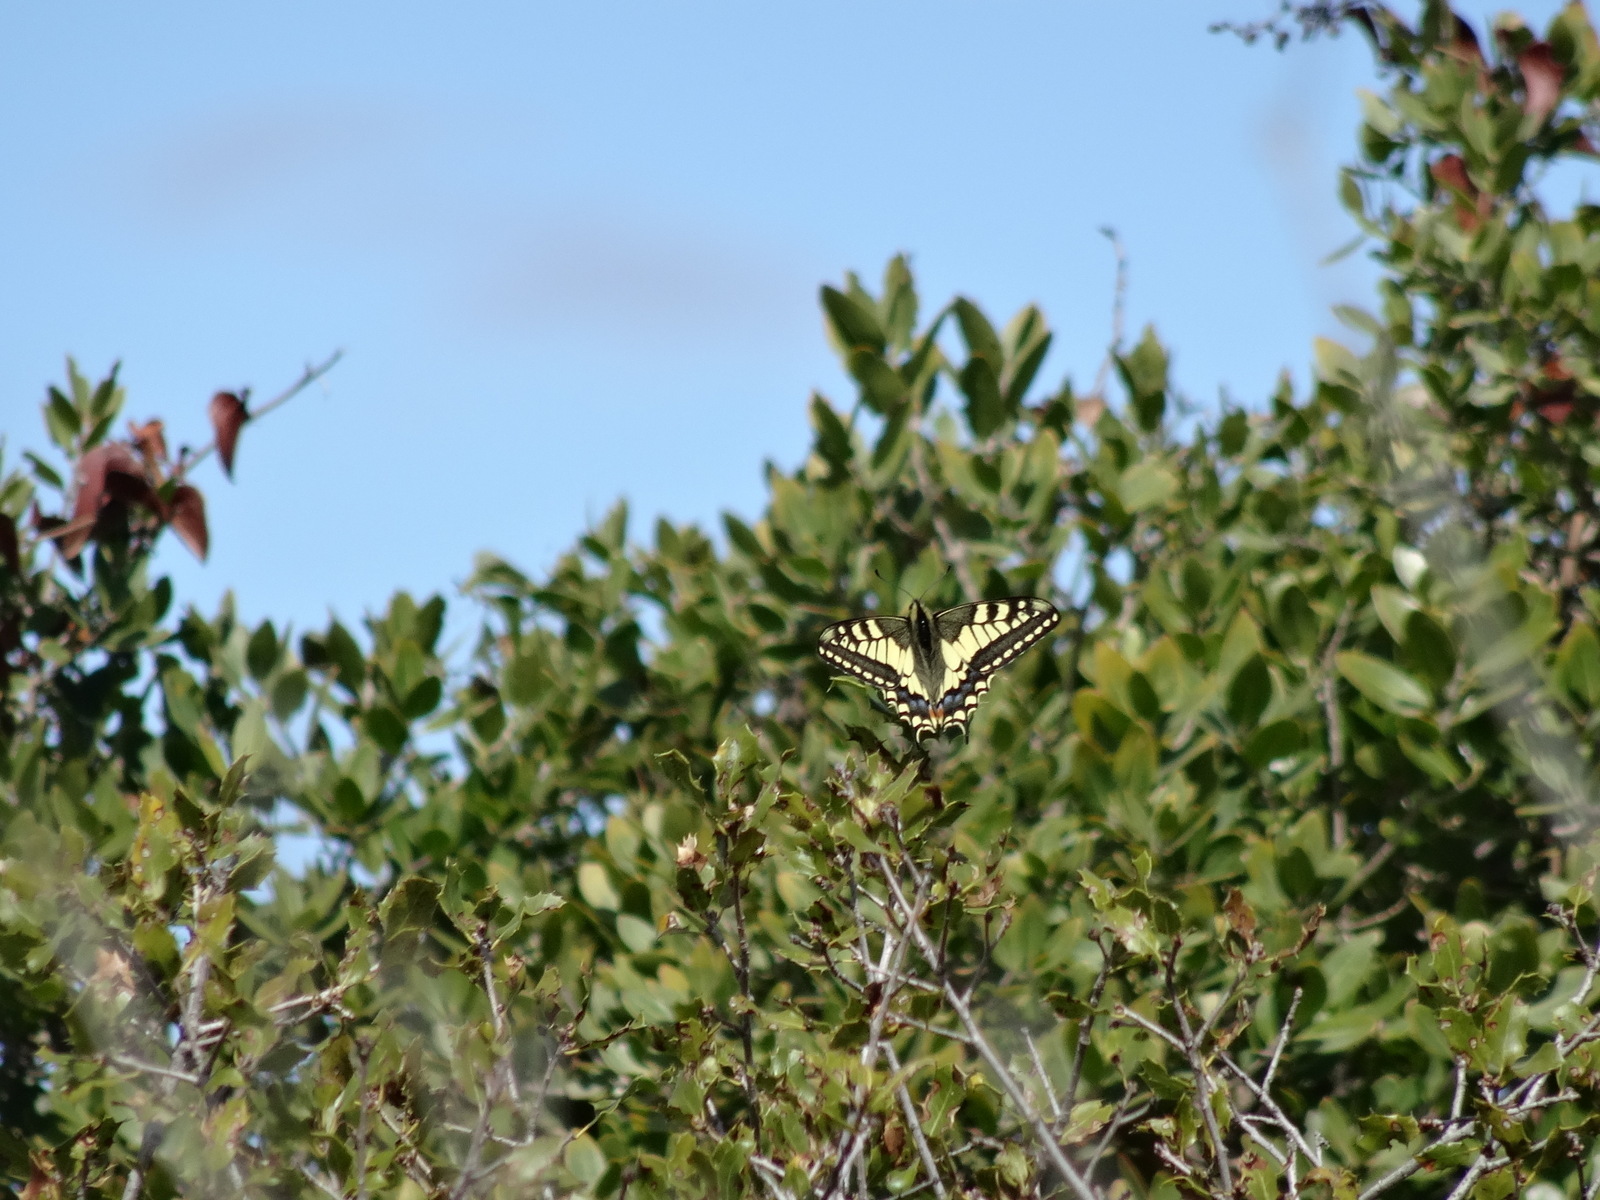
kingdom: Animalia
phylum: Arthropoda
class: Insecta
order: Lepidoptera
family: Papilionidae
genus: Papilio
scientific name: Papilio machaon
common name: Swallowtail
